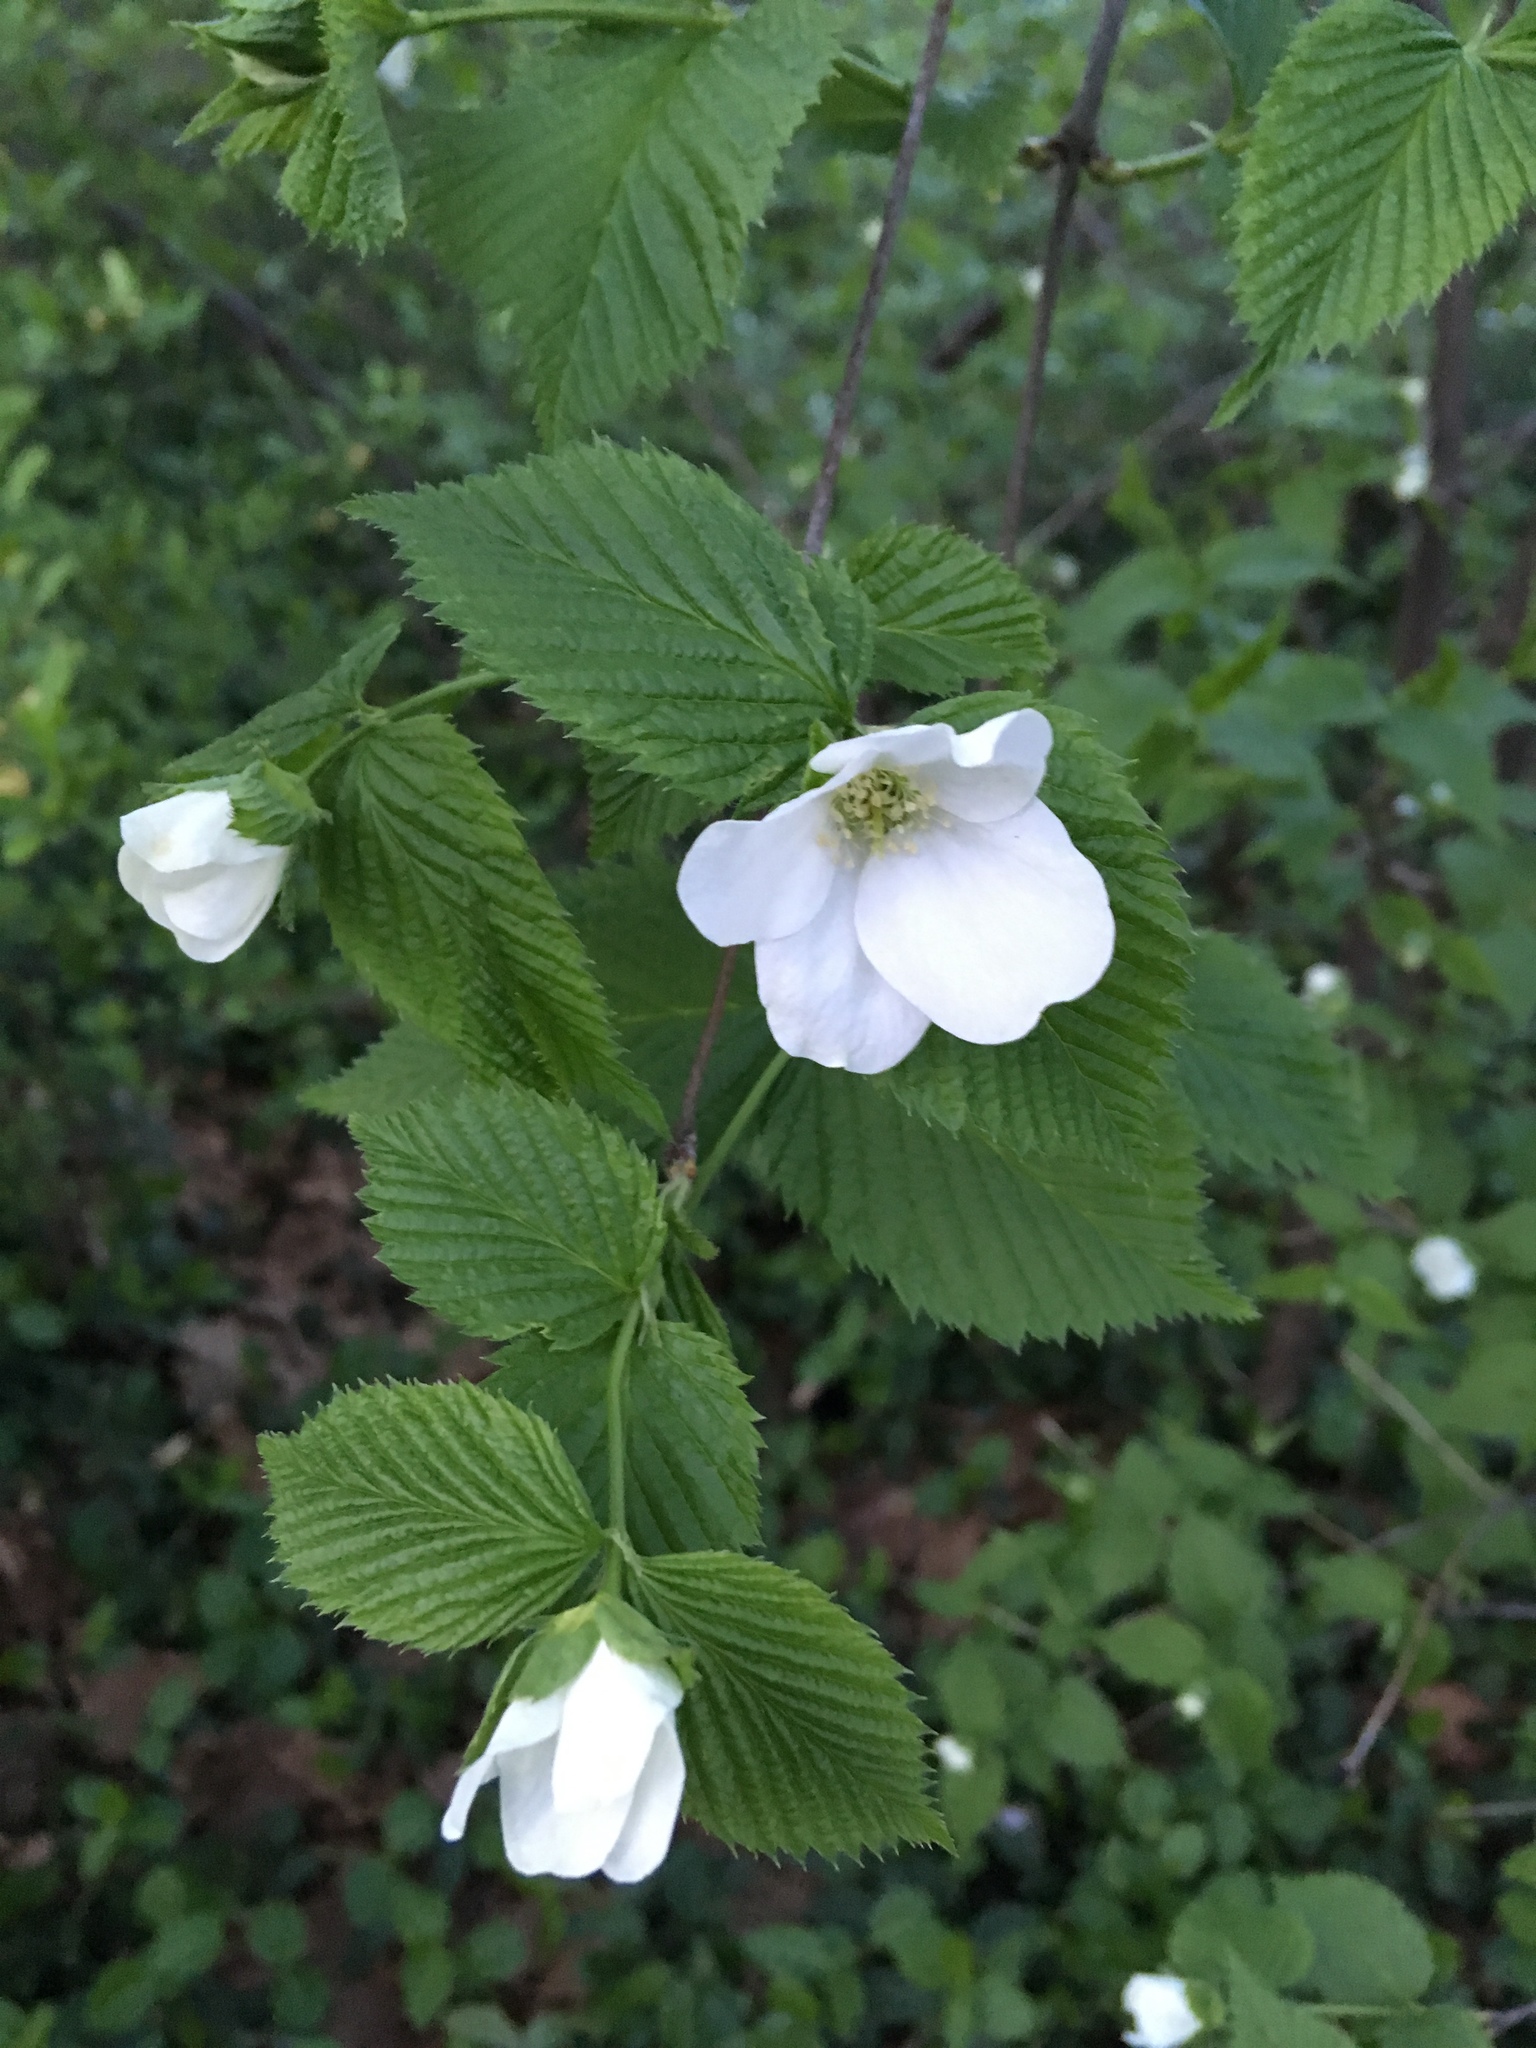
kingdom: Plantae
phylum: Tracheophyta
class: Magnoliopsida
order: Rosales
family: Rosaceae
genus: Rhodotypos
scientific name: Rhodotypos scandens
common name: Jetbead
